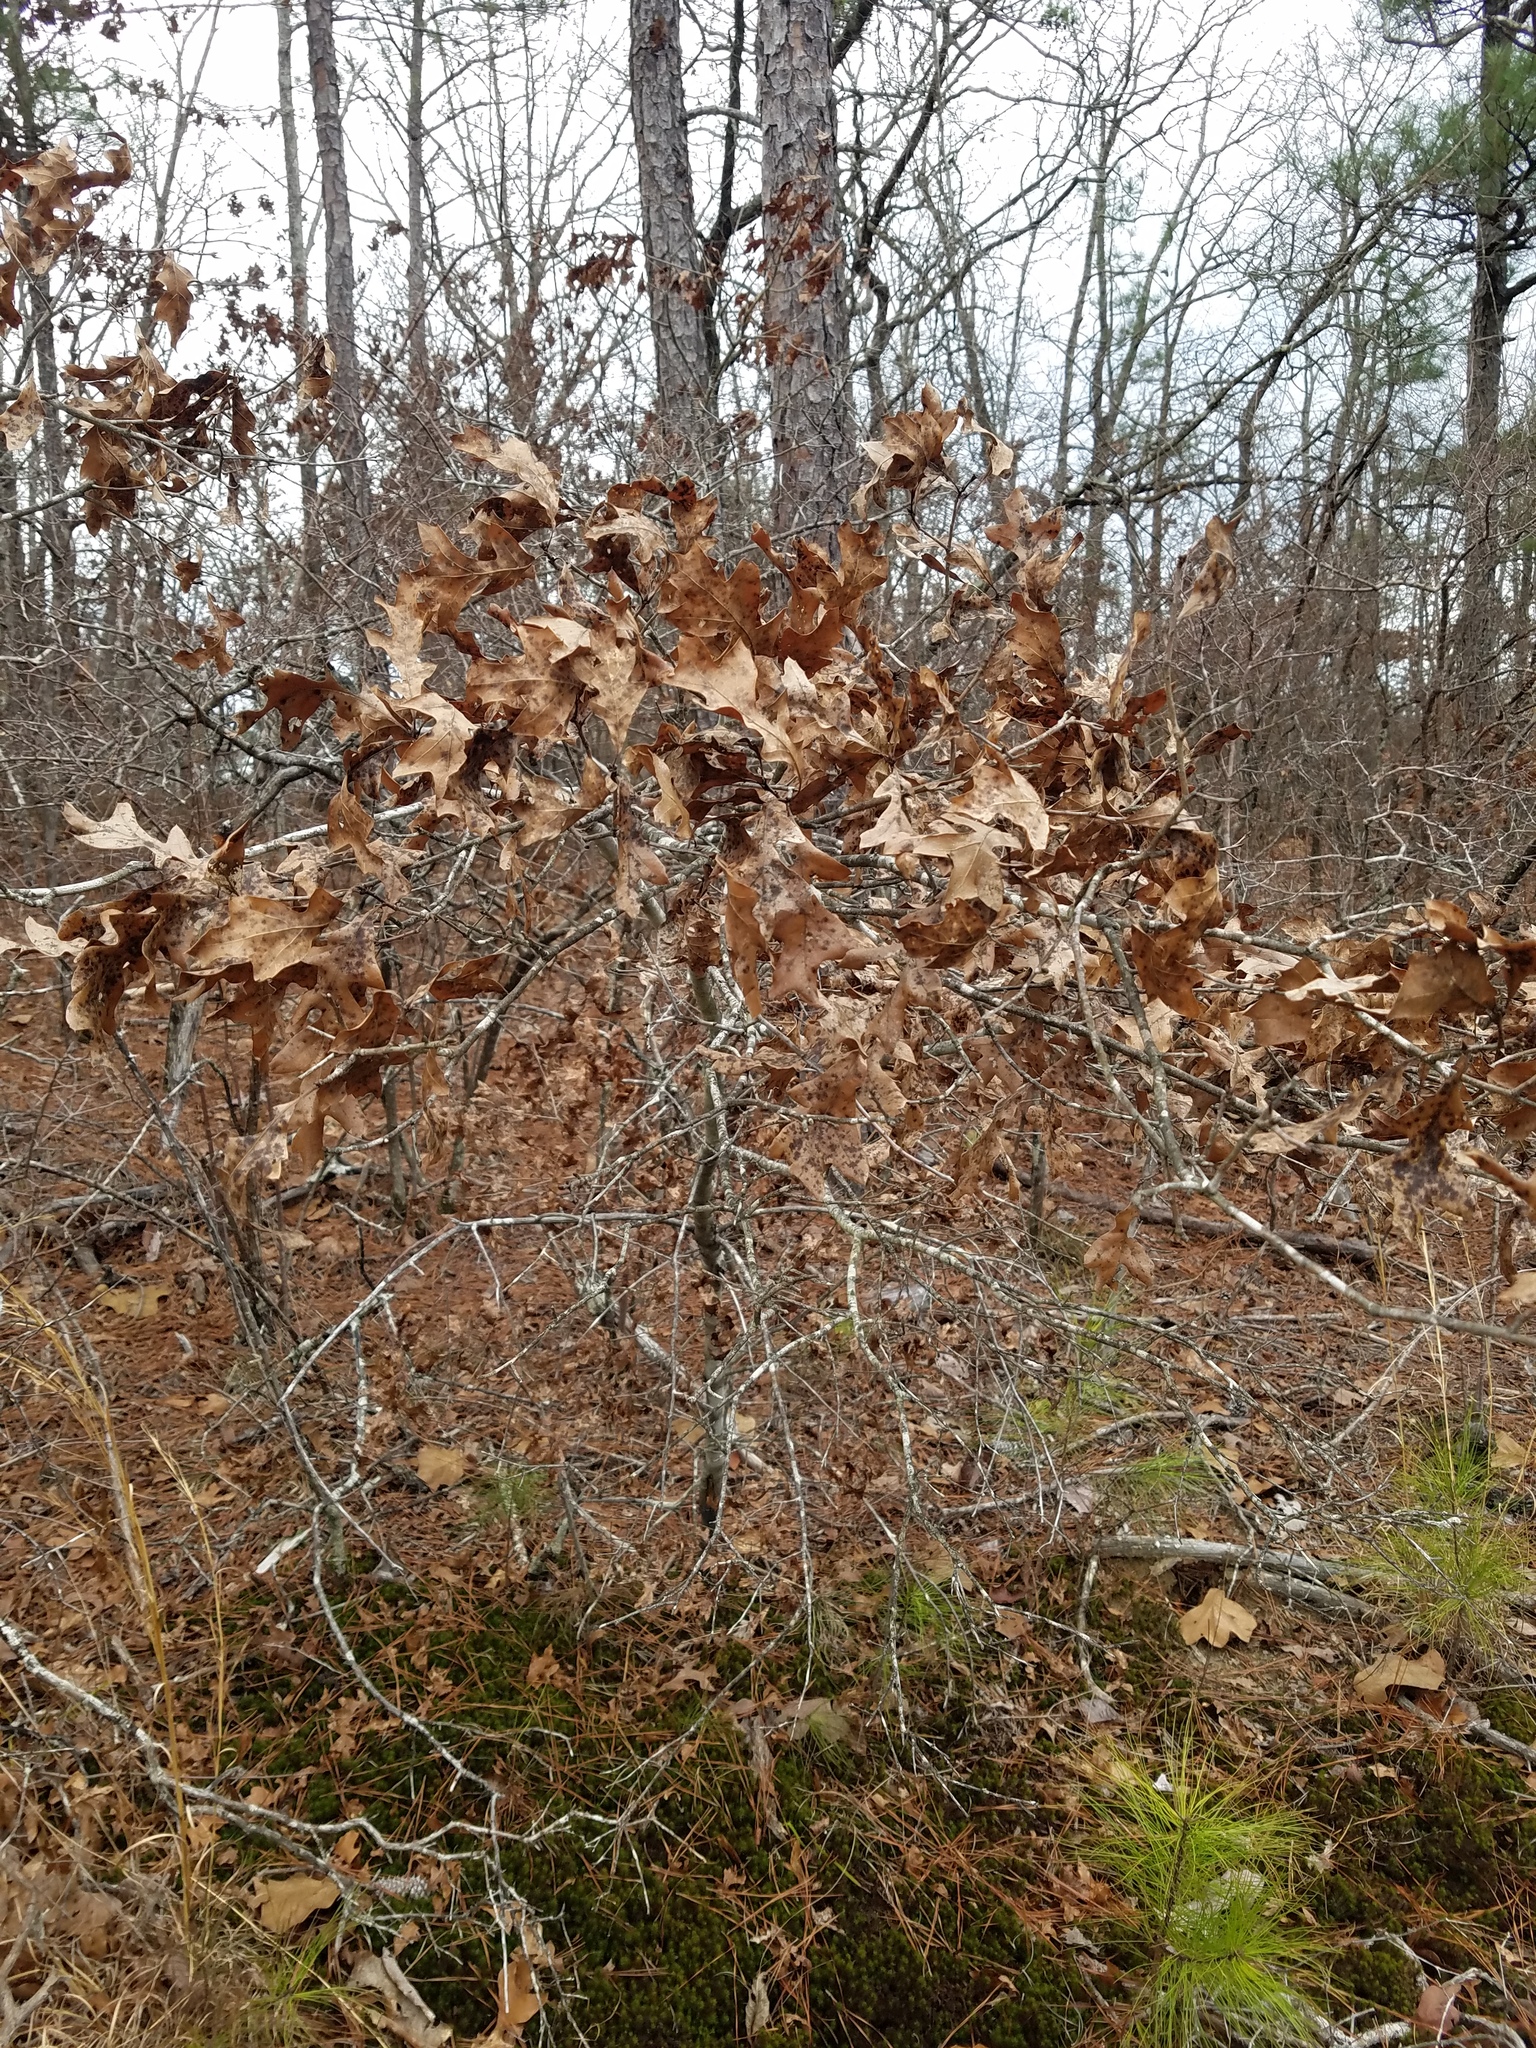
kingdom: Plantae
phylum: Tracheophyta
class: Magnoliopsida
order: Fagales
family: Fagaceae
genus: Quercus
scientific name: Quercus georgiana
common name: Georgia oak
